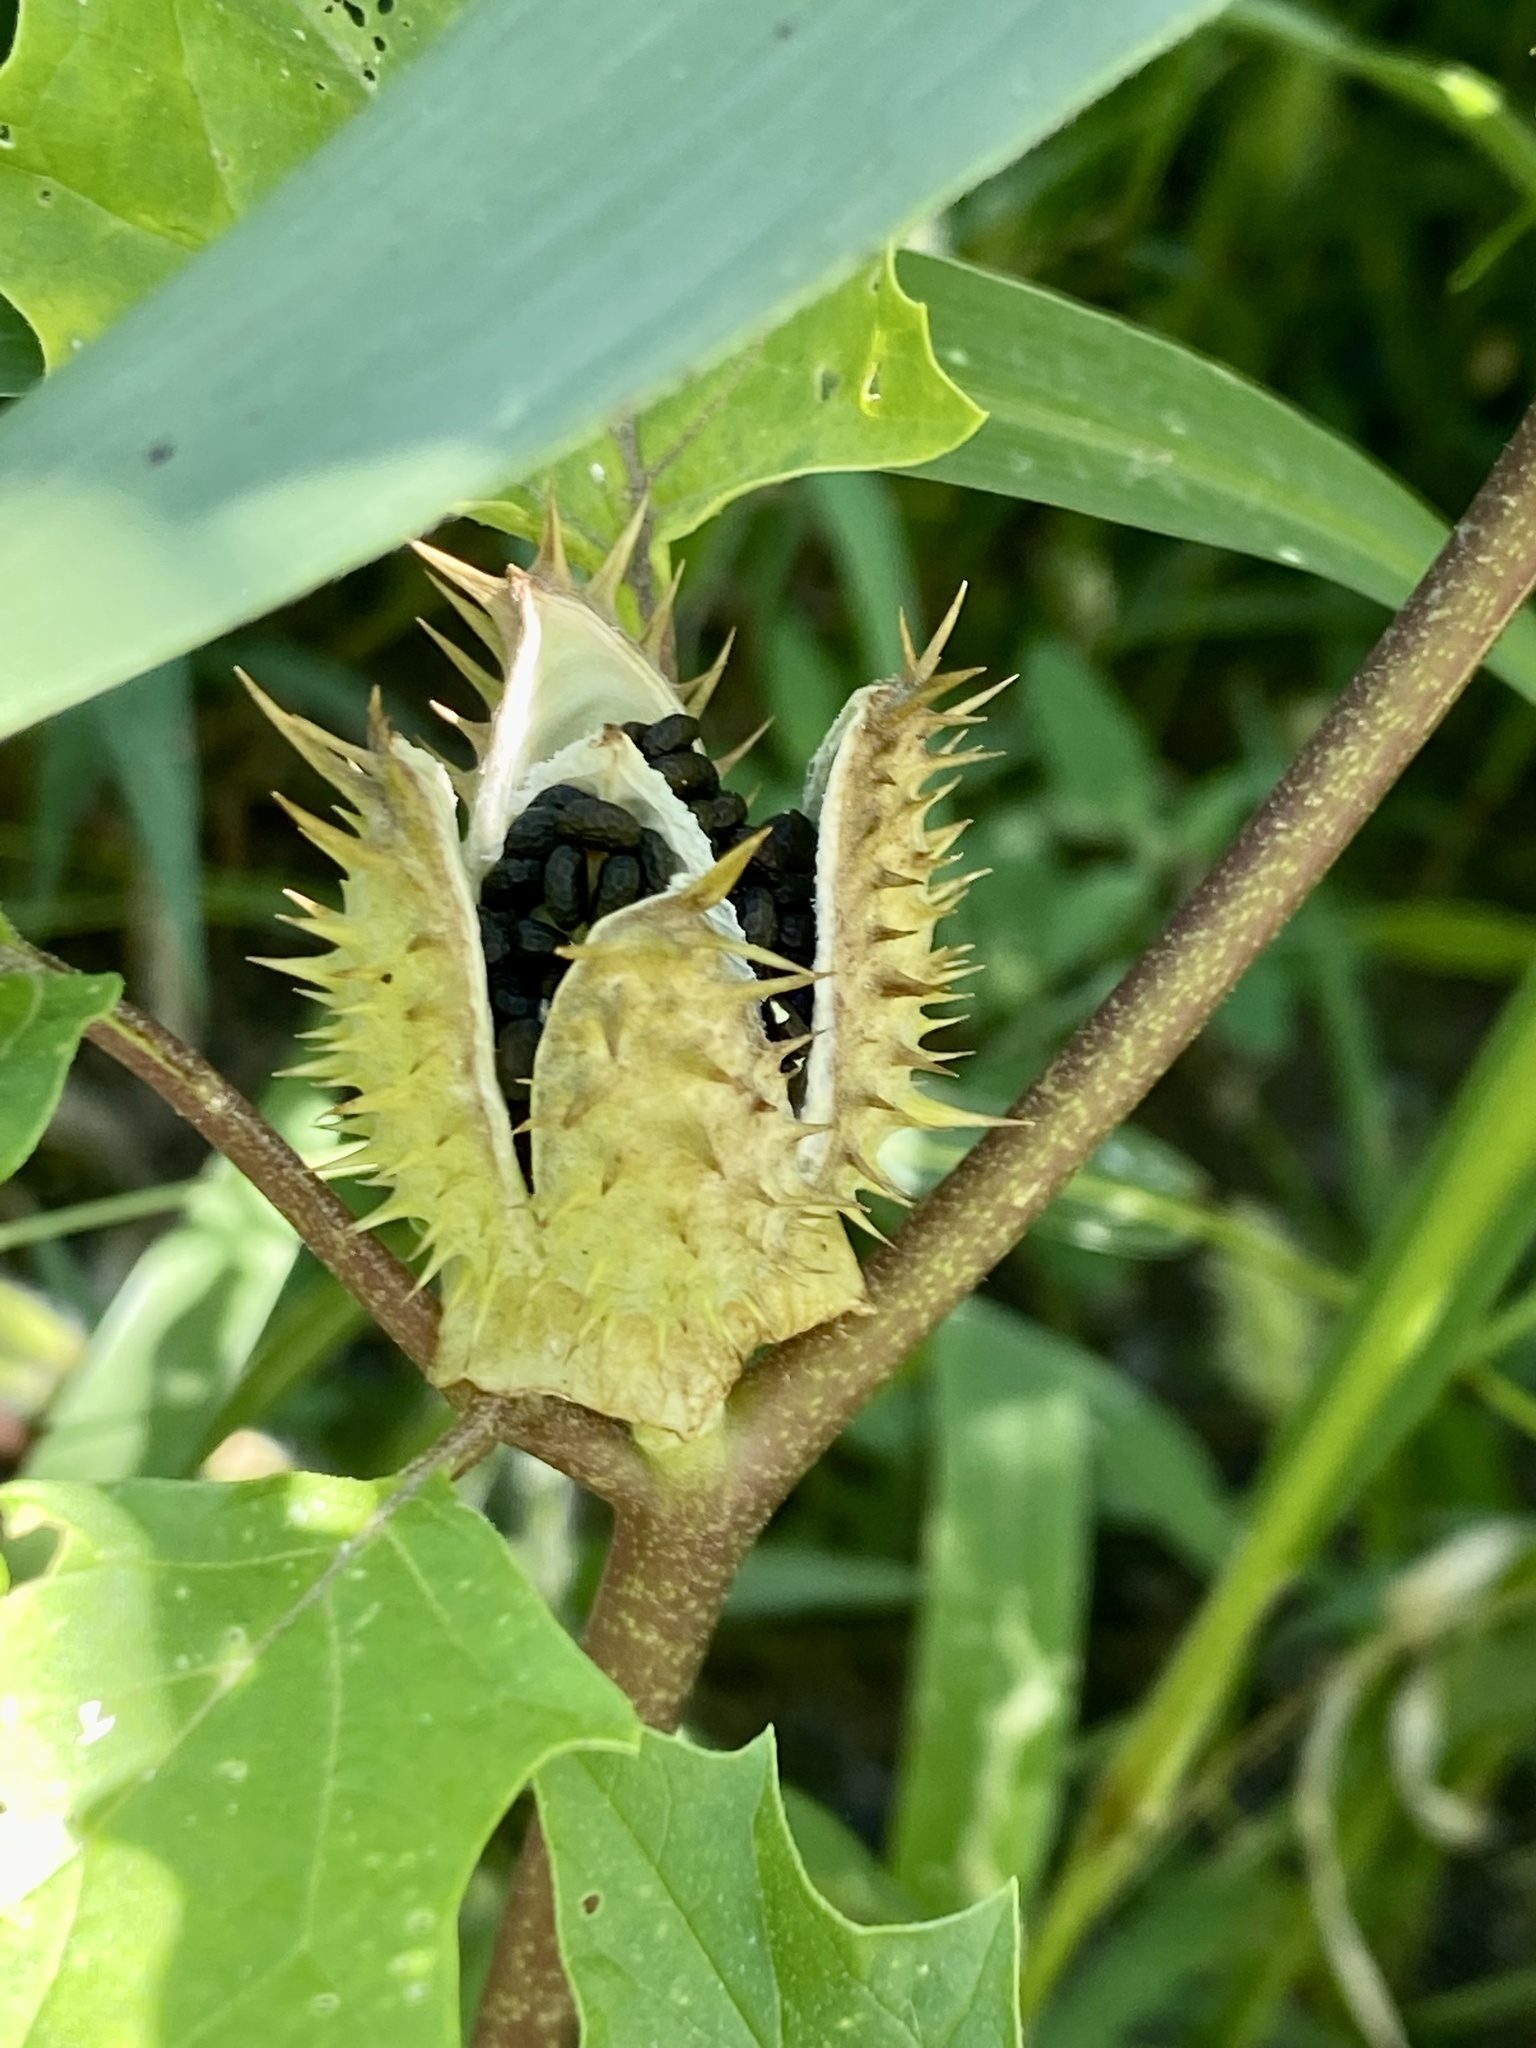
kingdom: Plantae
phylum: Tracheophyta
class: Magnoliopsida
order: Solanales
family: Solanaceae
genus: Datura
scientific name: Datura stramonium
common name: Thorn-apple
